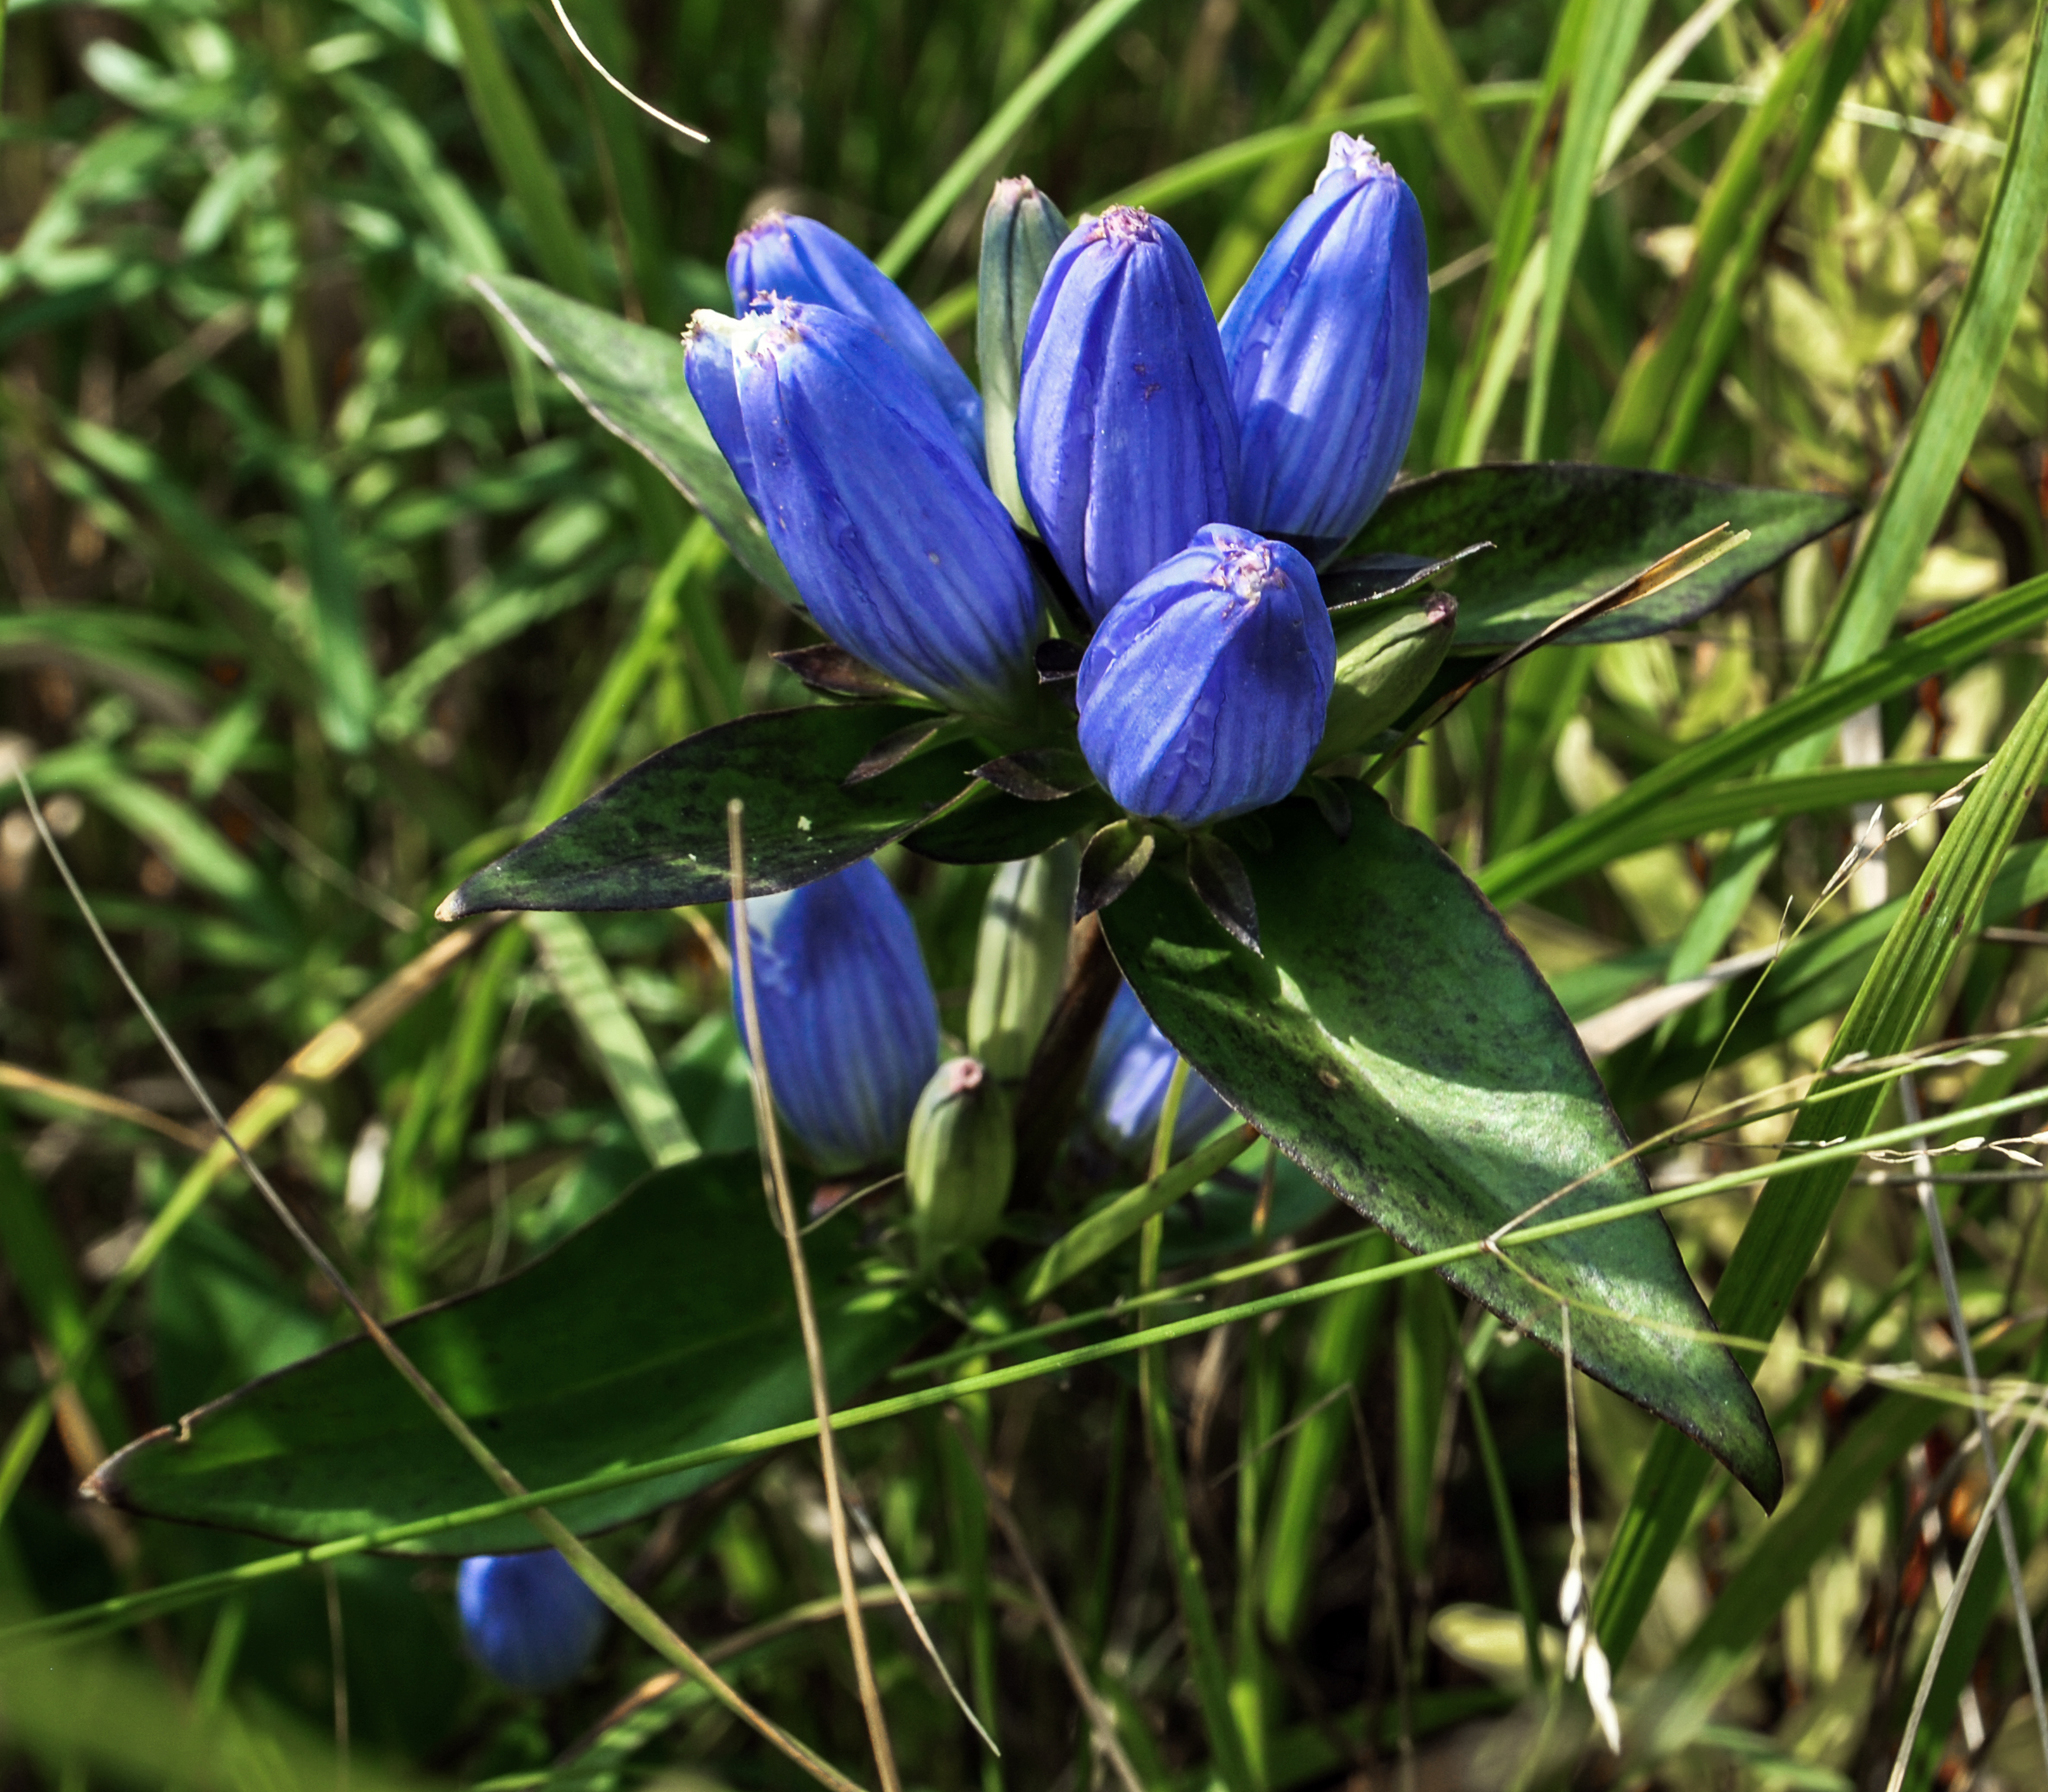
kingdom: Plantae
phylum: Tracheophyta
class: Magnoliopsida
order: Gentianales
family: Gentianaceae
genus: Gentiana
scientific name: Gentiana andrewsii
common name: Bottle gentian
